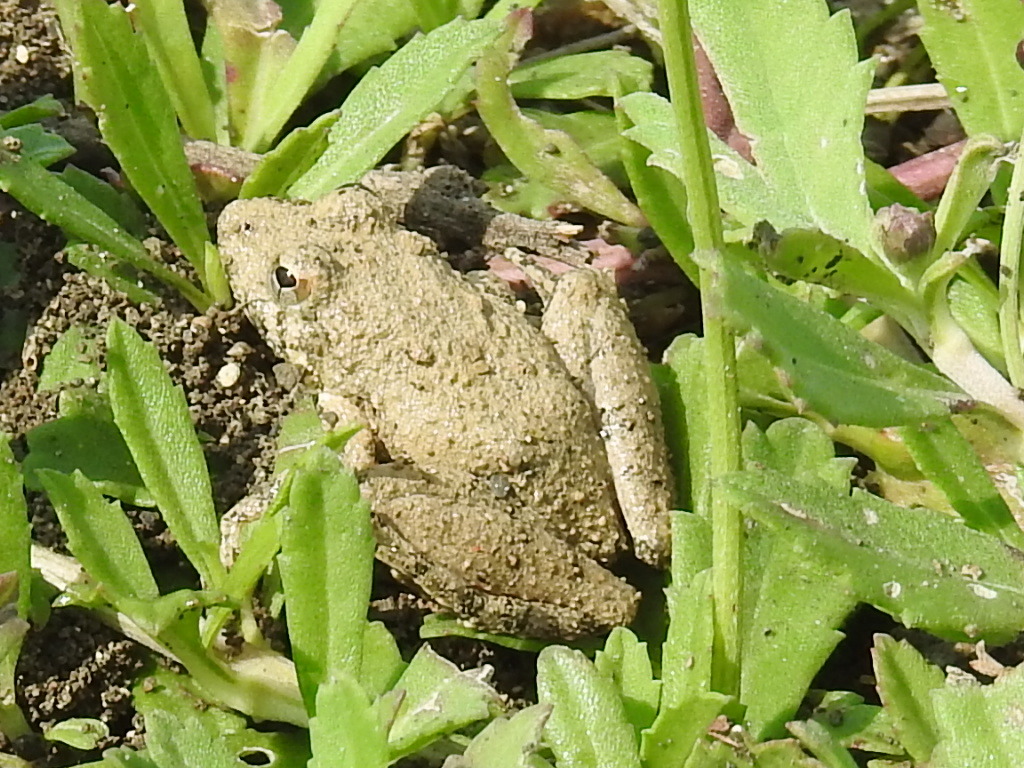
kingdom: Animalia
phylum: Chordata
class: Amphibia
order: Anura
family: Hylidae
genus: Acris
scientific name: Acris blanchardi
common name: Blanchard's cricket frog
